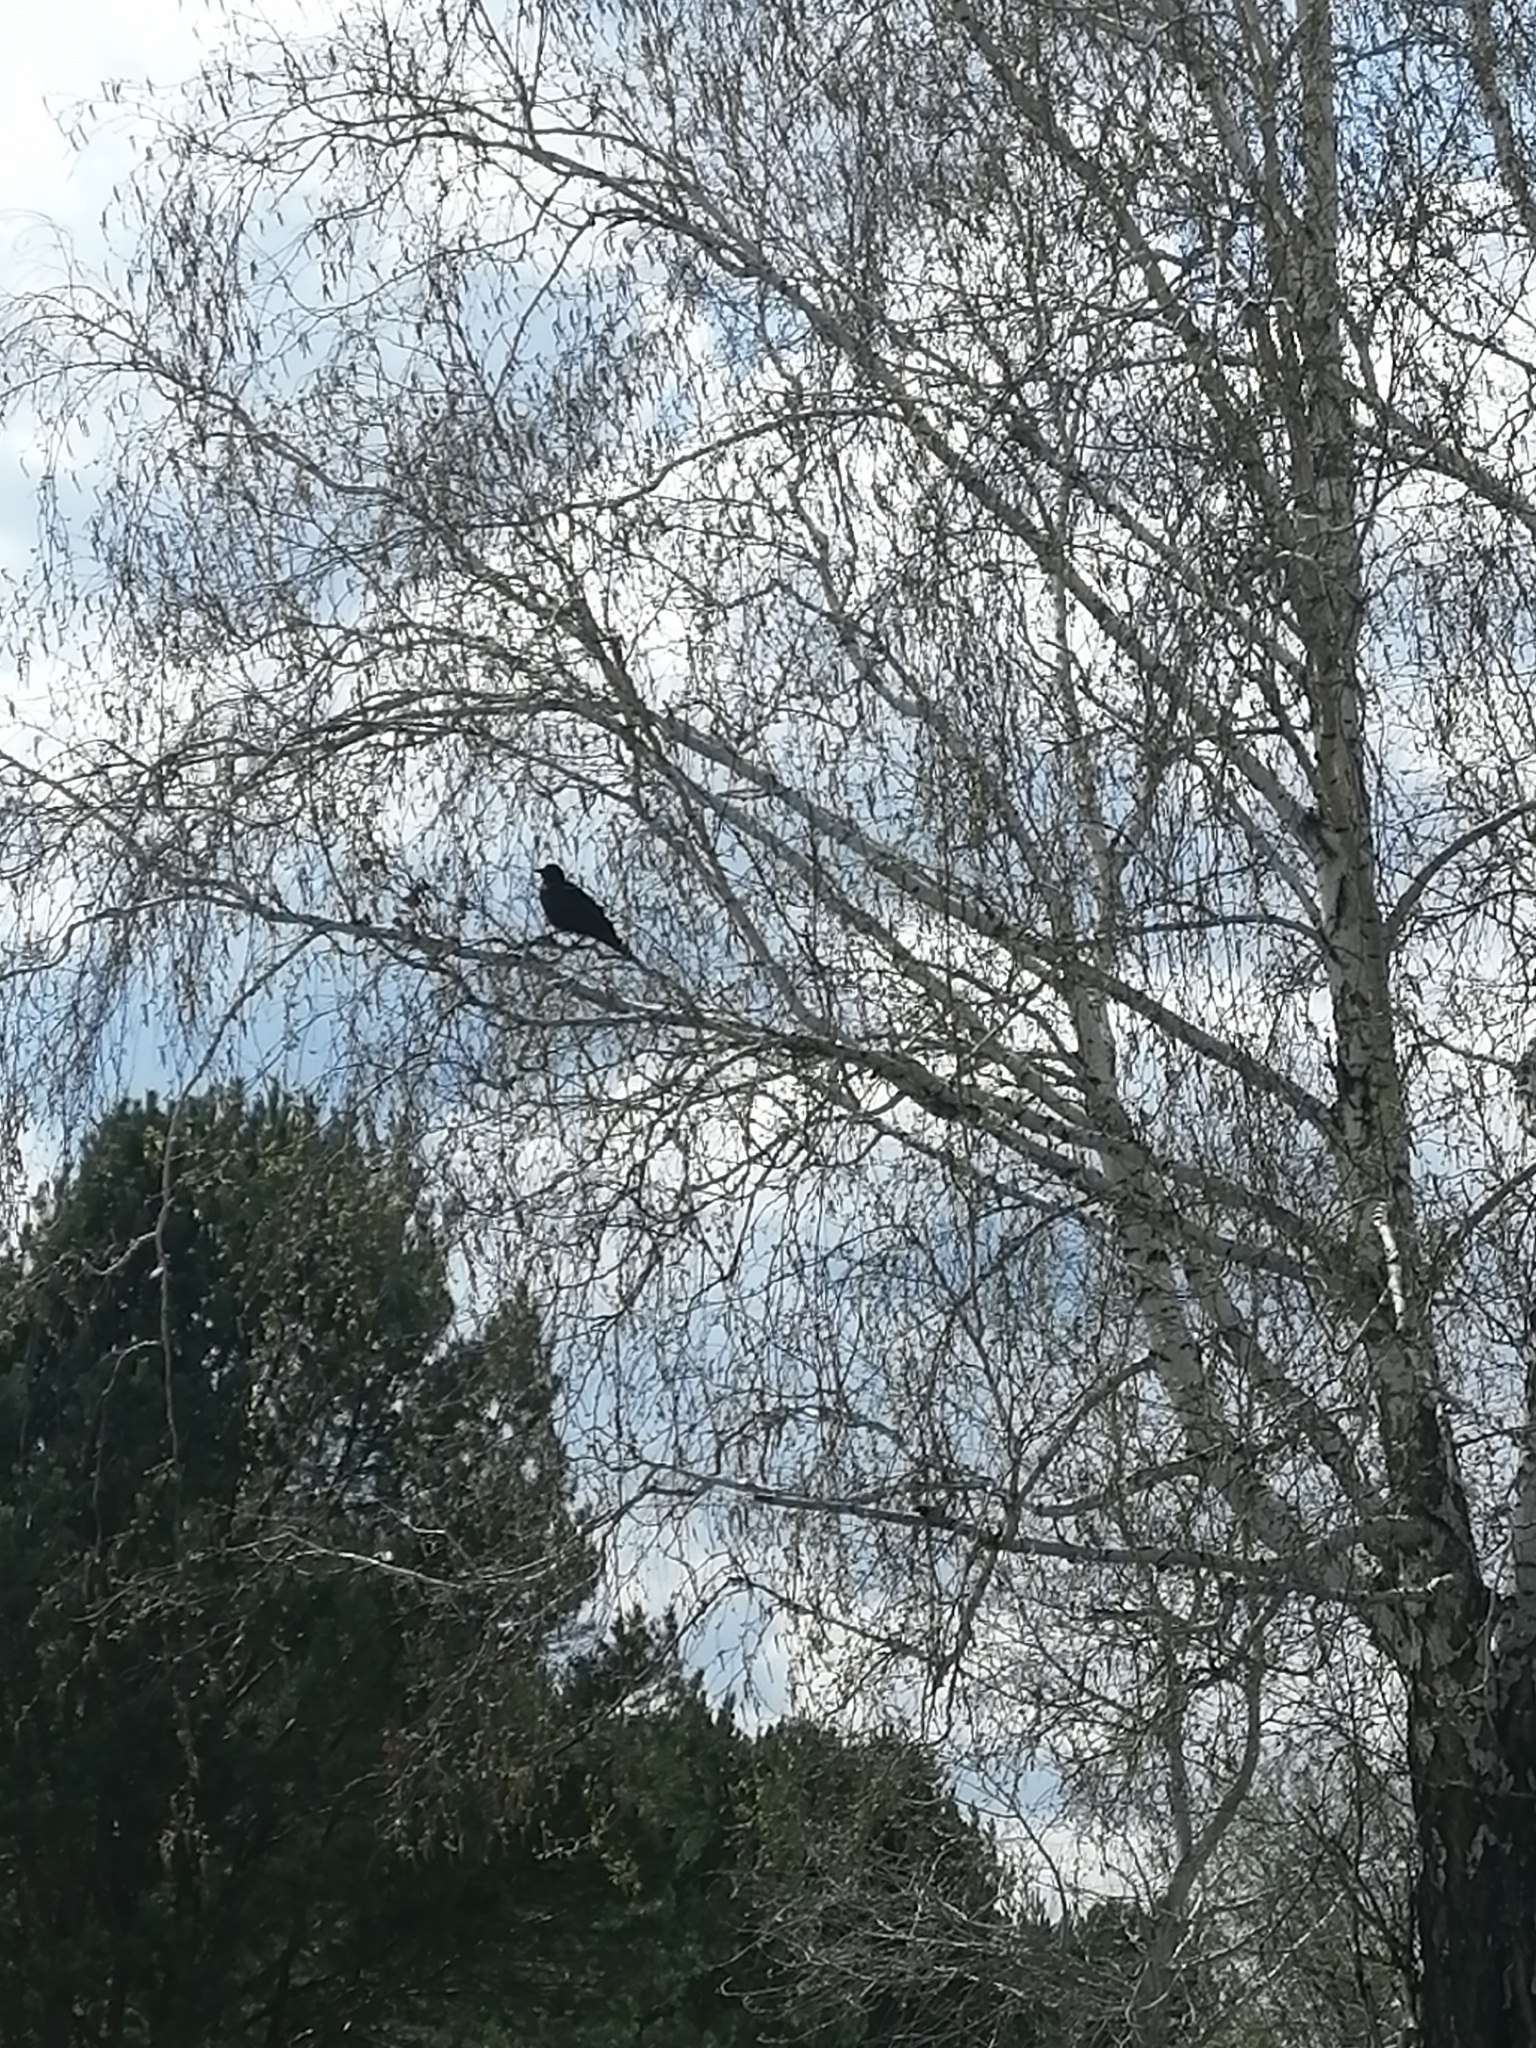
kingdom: Animalia
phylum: Chordata
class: Aves
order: Passeriformes
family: Corvidae
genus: Corvus
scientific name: Corvus corone
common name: Carrion crow
